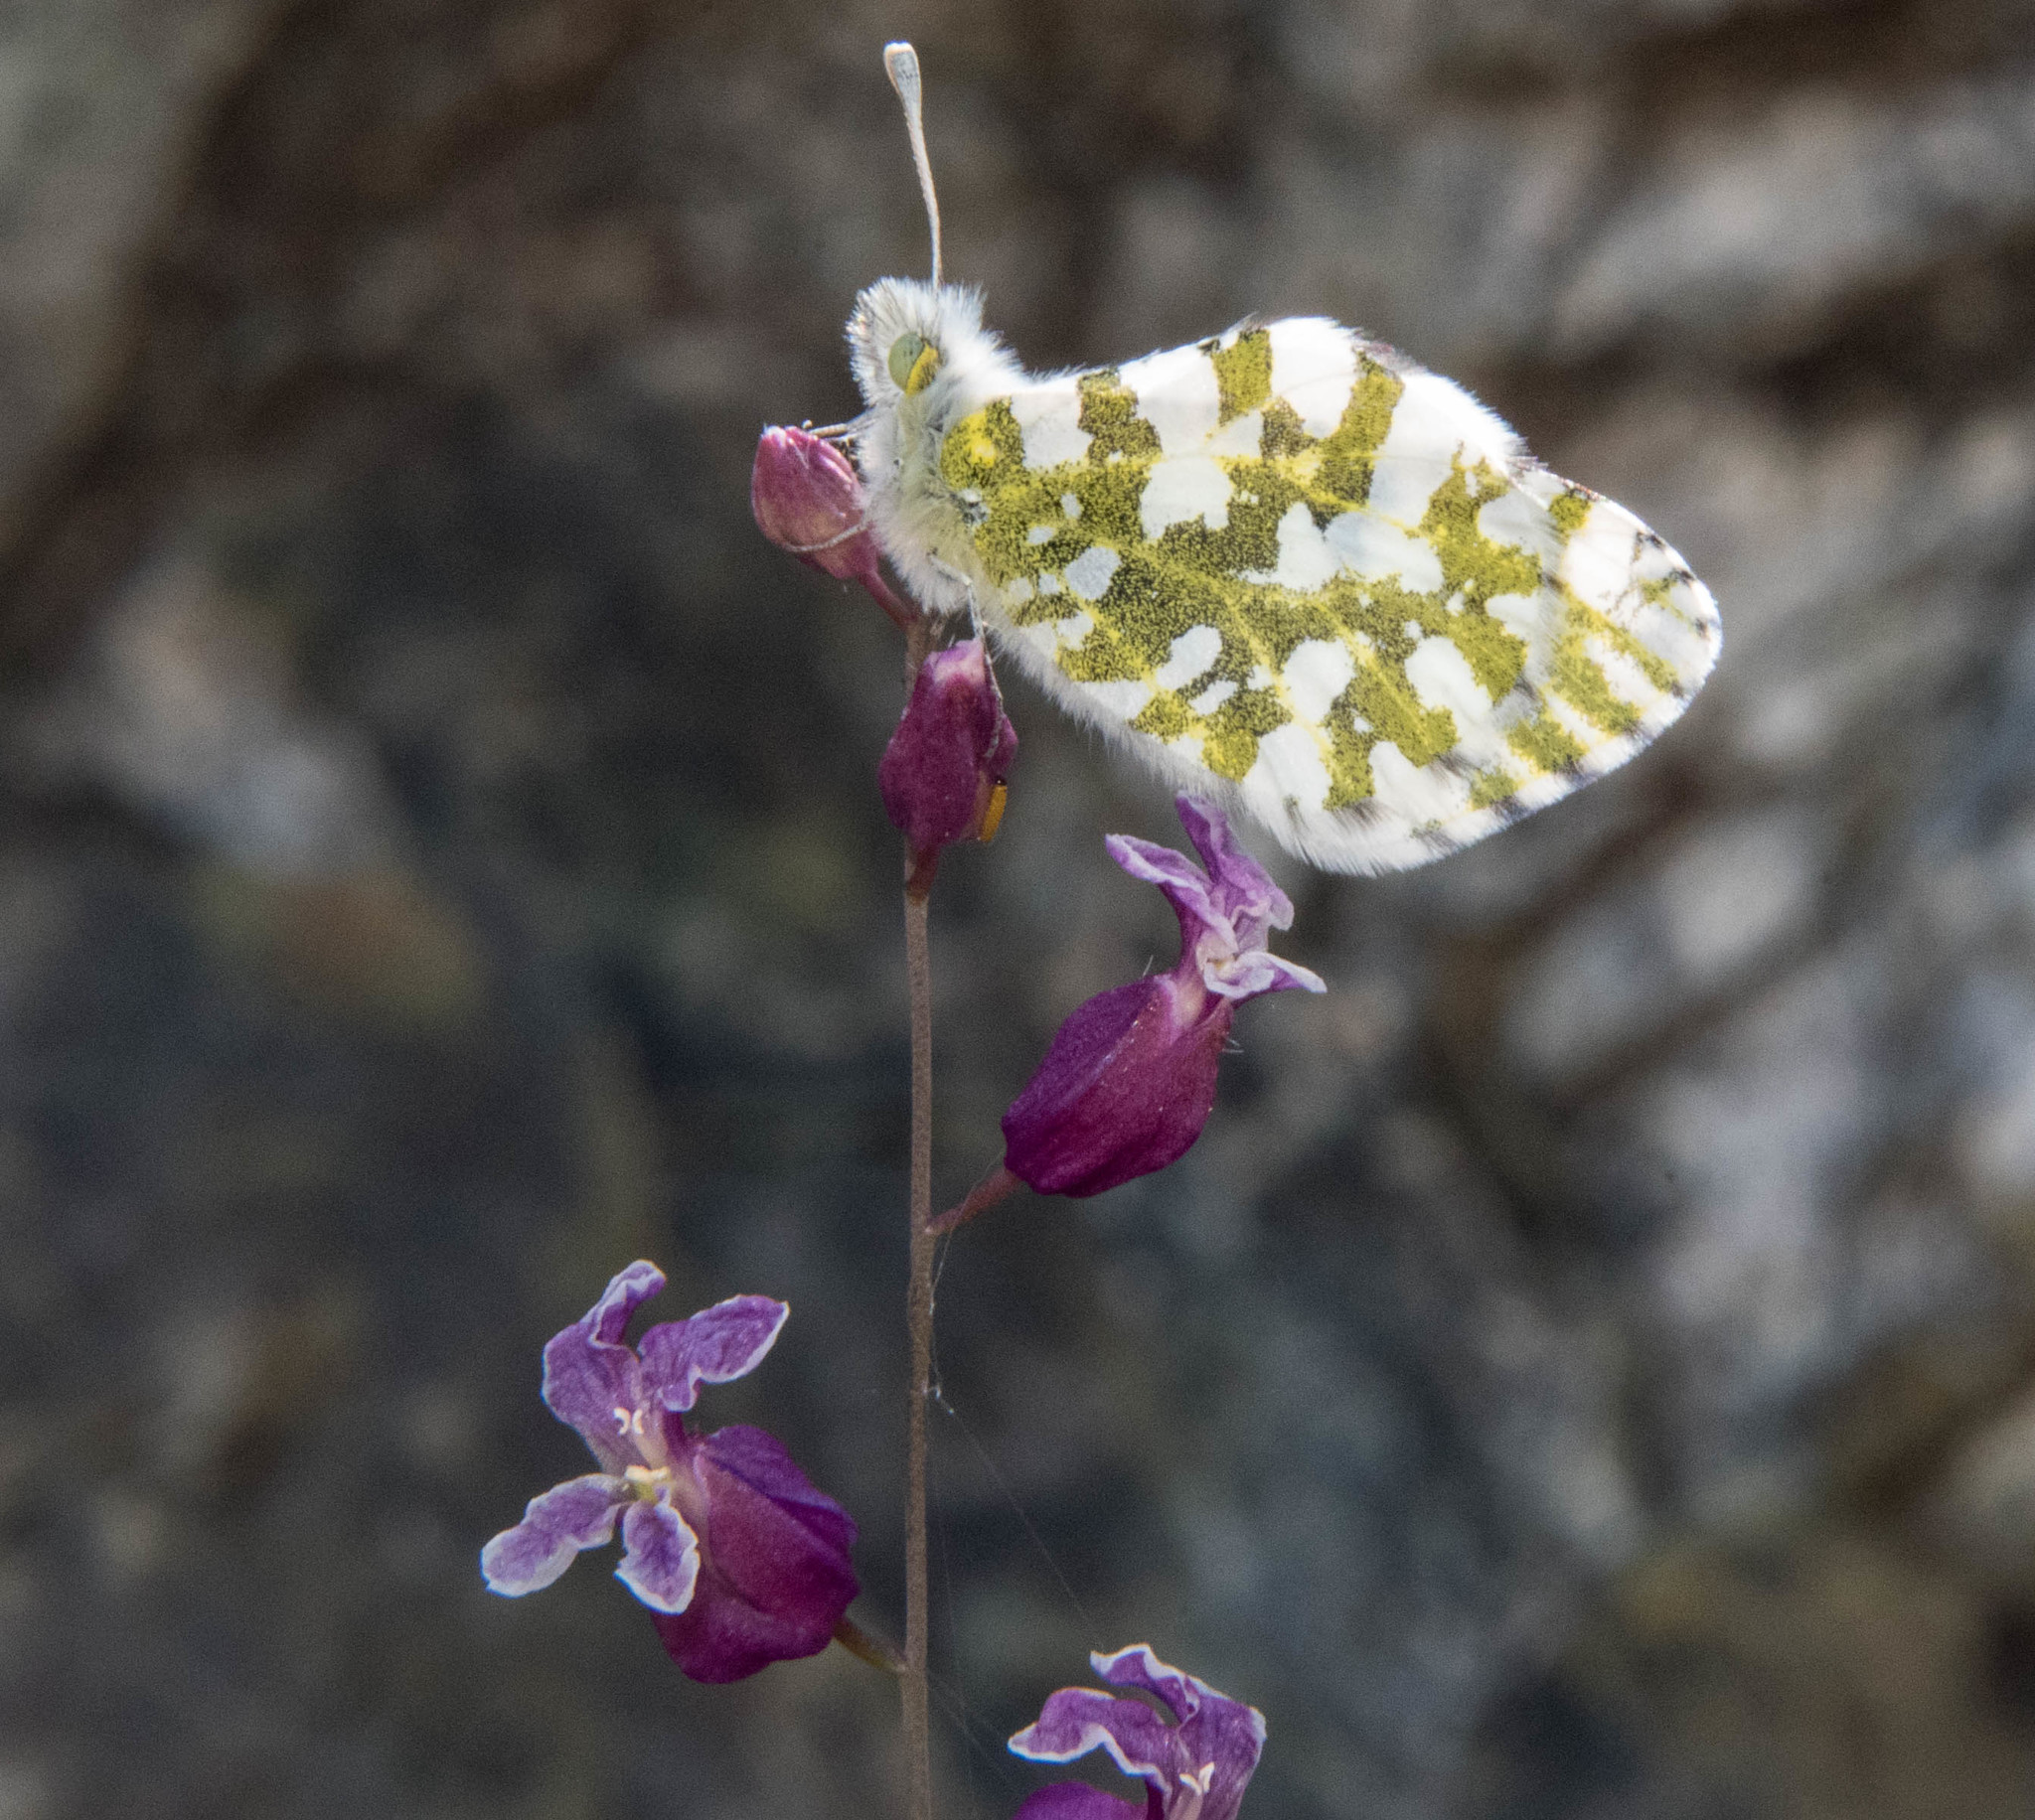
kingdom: Animalia
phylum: Arthropoda
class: Insecta
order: Lepidoptera
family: Pieridae
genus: Euchloe
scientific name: Euchloe hyantis
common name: California marble
